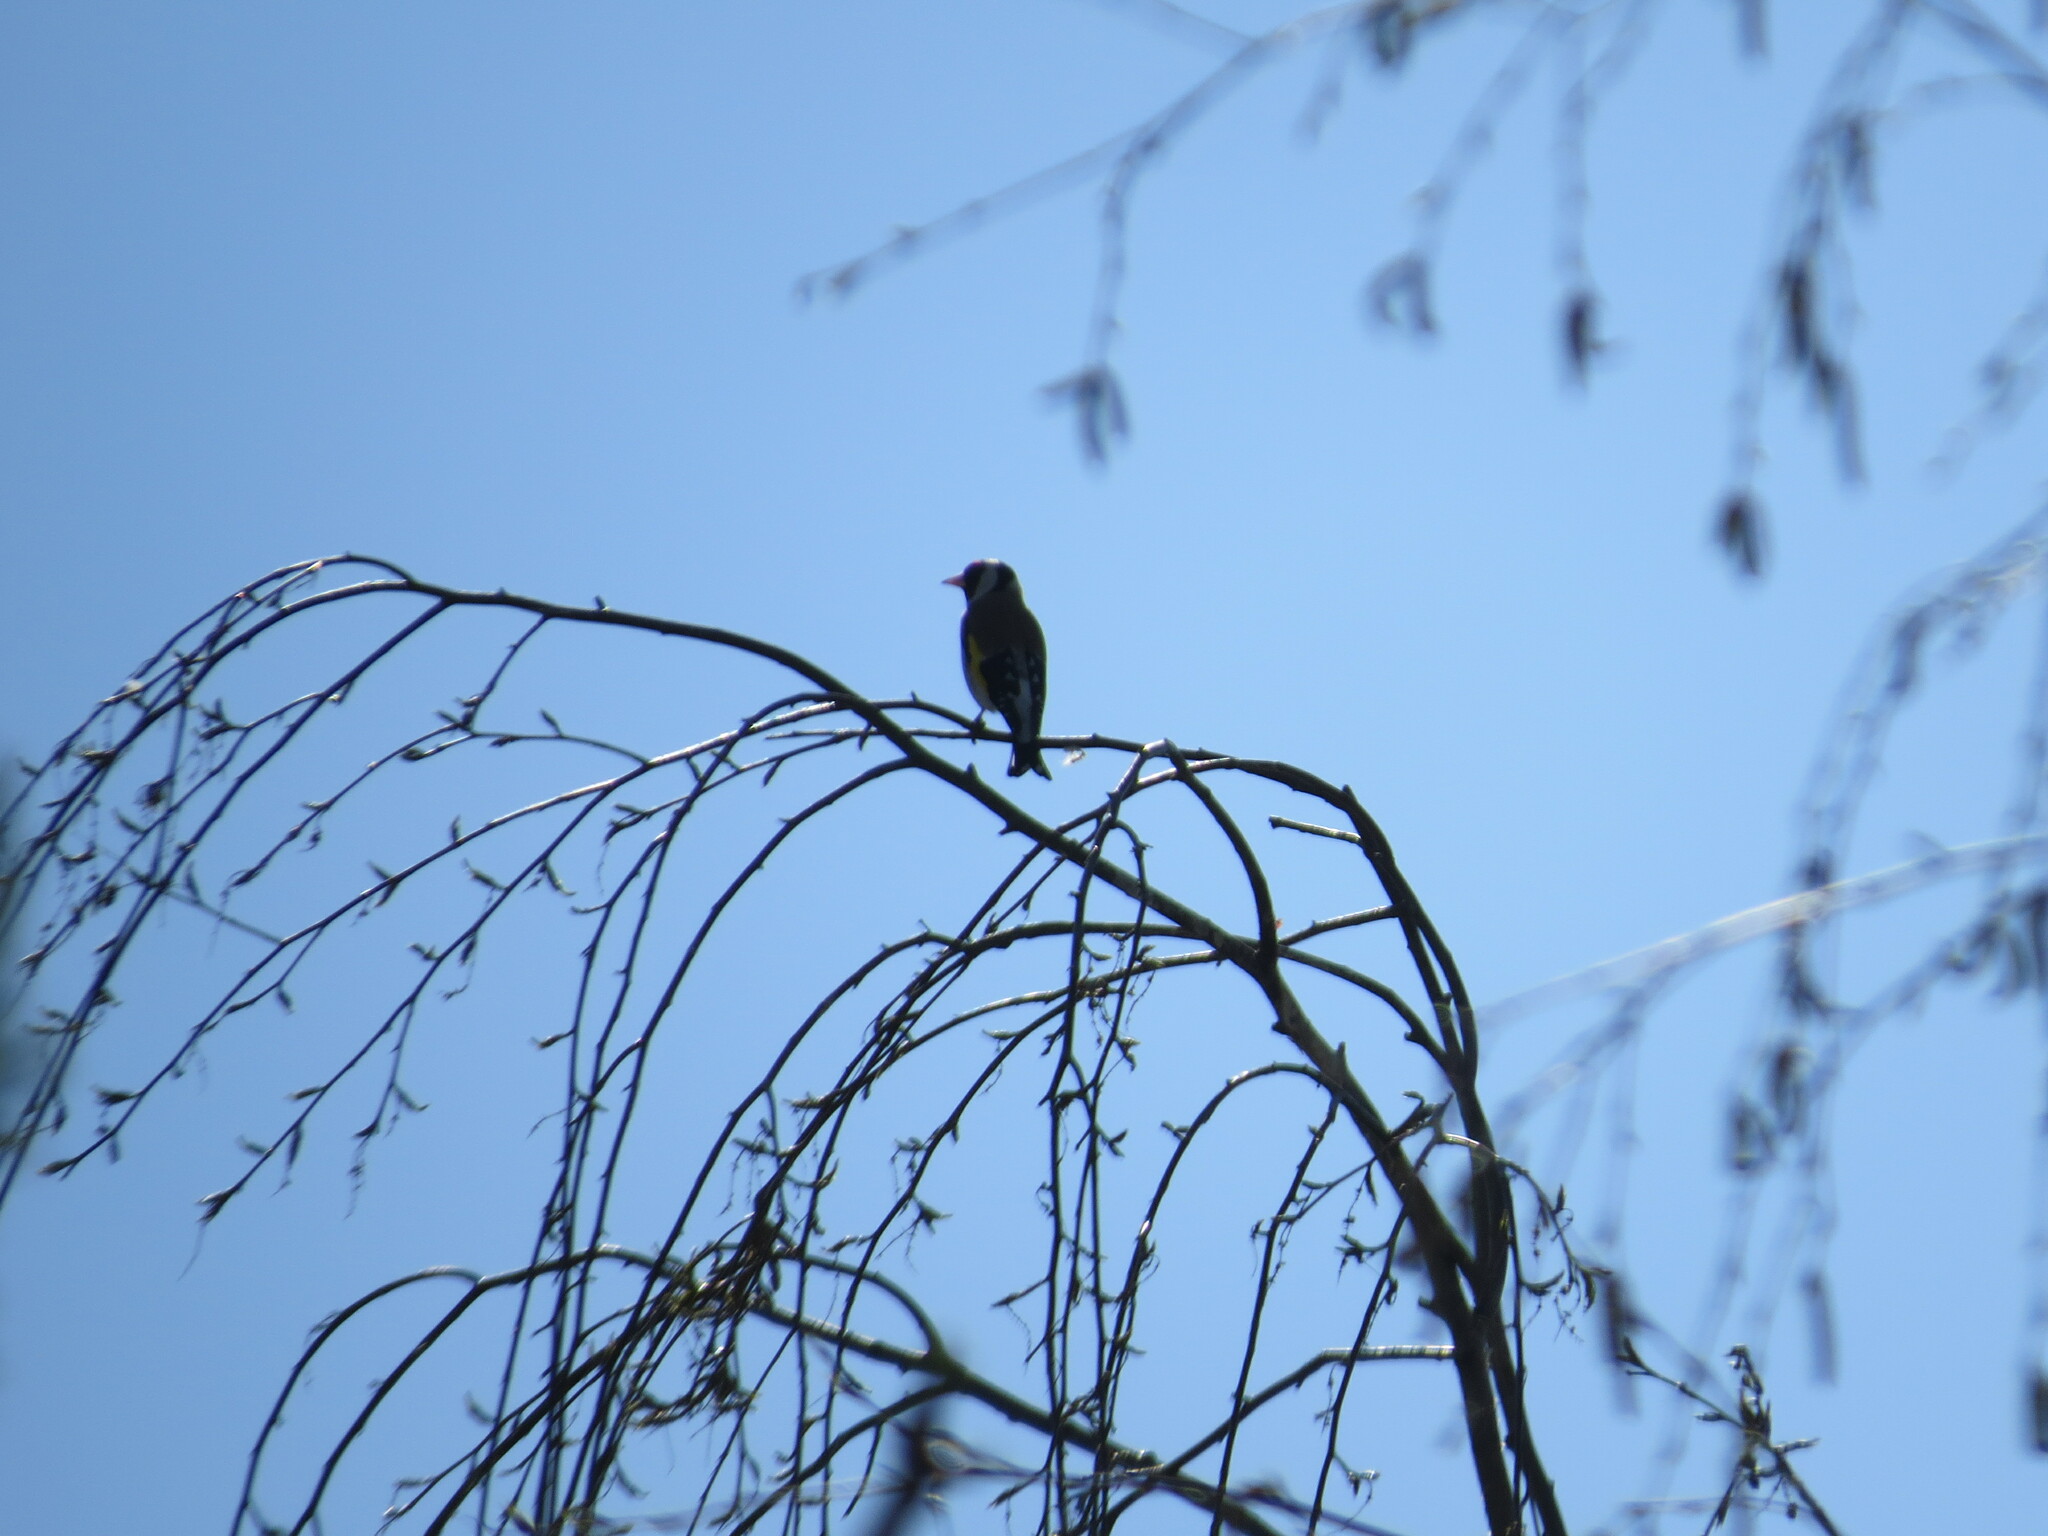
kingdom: Animalia
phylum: Chordata
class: Aves
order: Passeriformes
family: Fringillidae
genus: Carduelis
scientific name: Carduelis carduelis
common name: European goldfinch
